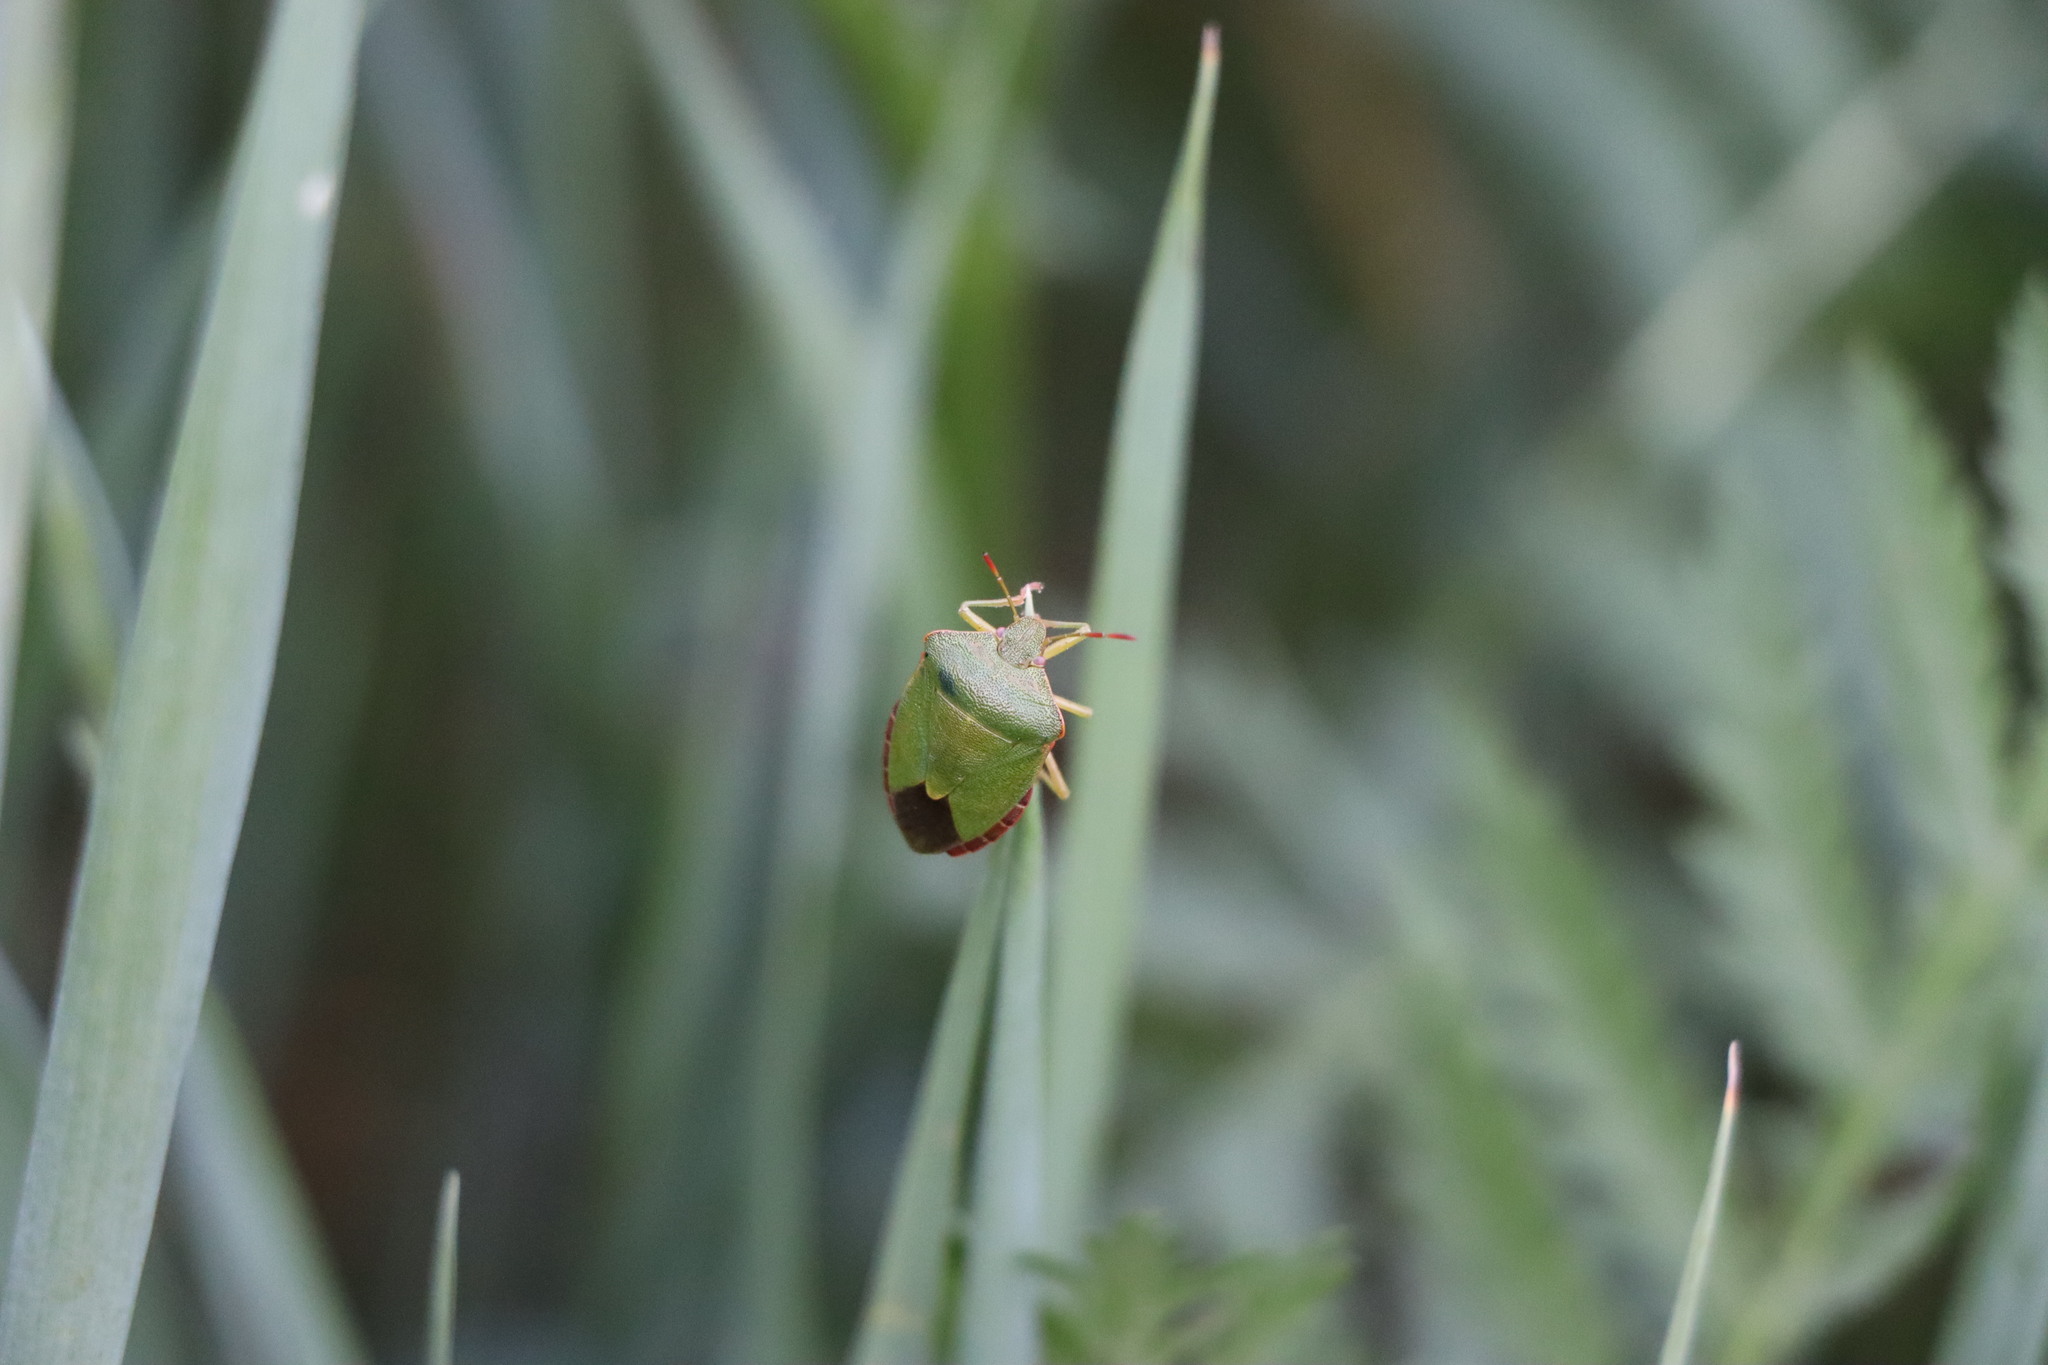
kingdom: Animalia
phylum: Arthropoda
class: Insecta
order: Hemiptera
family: Pentatomidae
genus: Palomena
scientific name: Palomena prasina
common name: Green shieldbug
